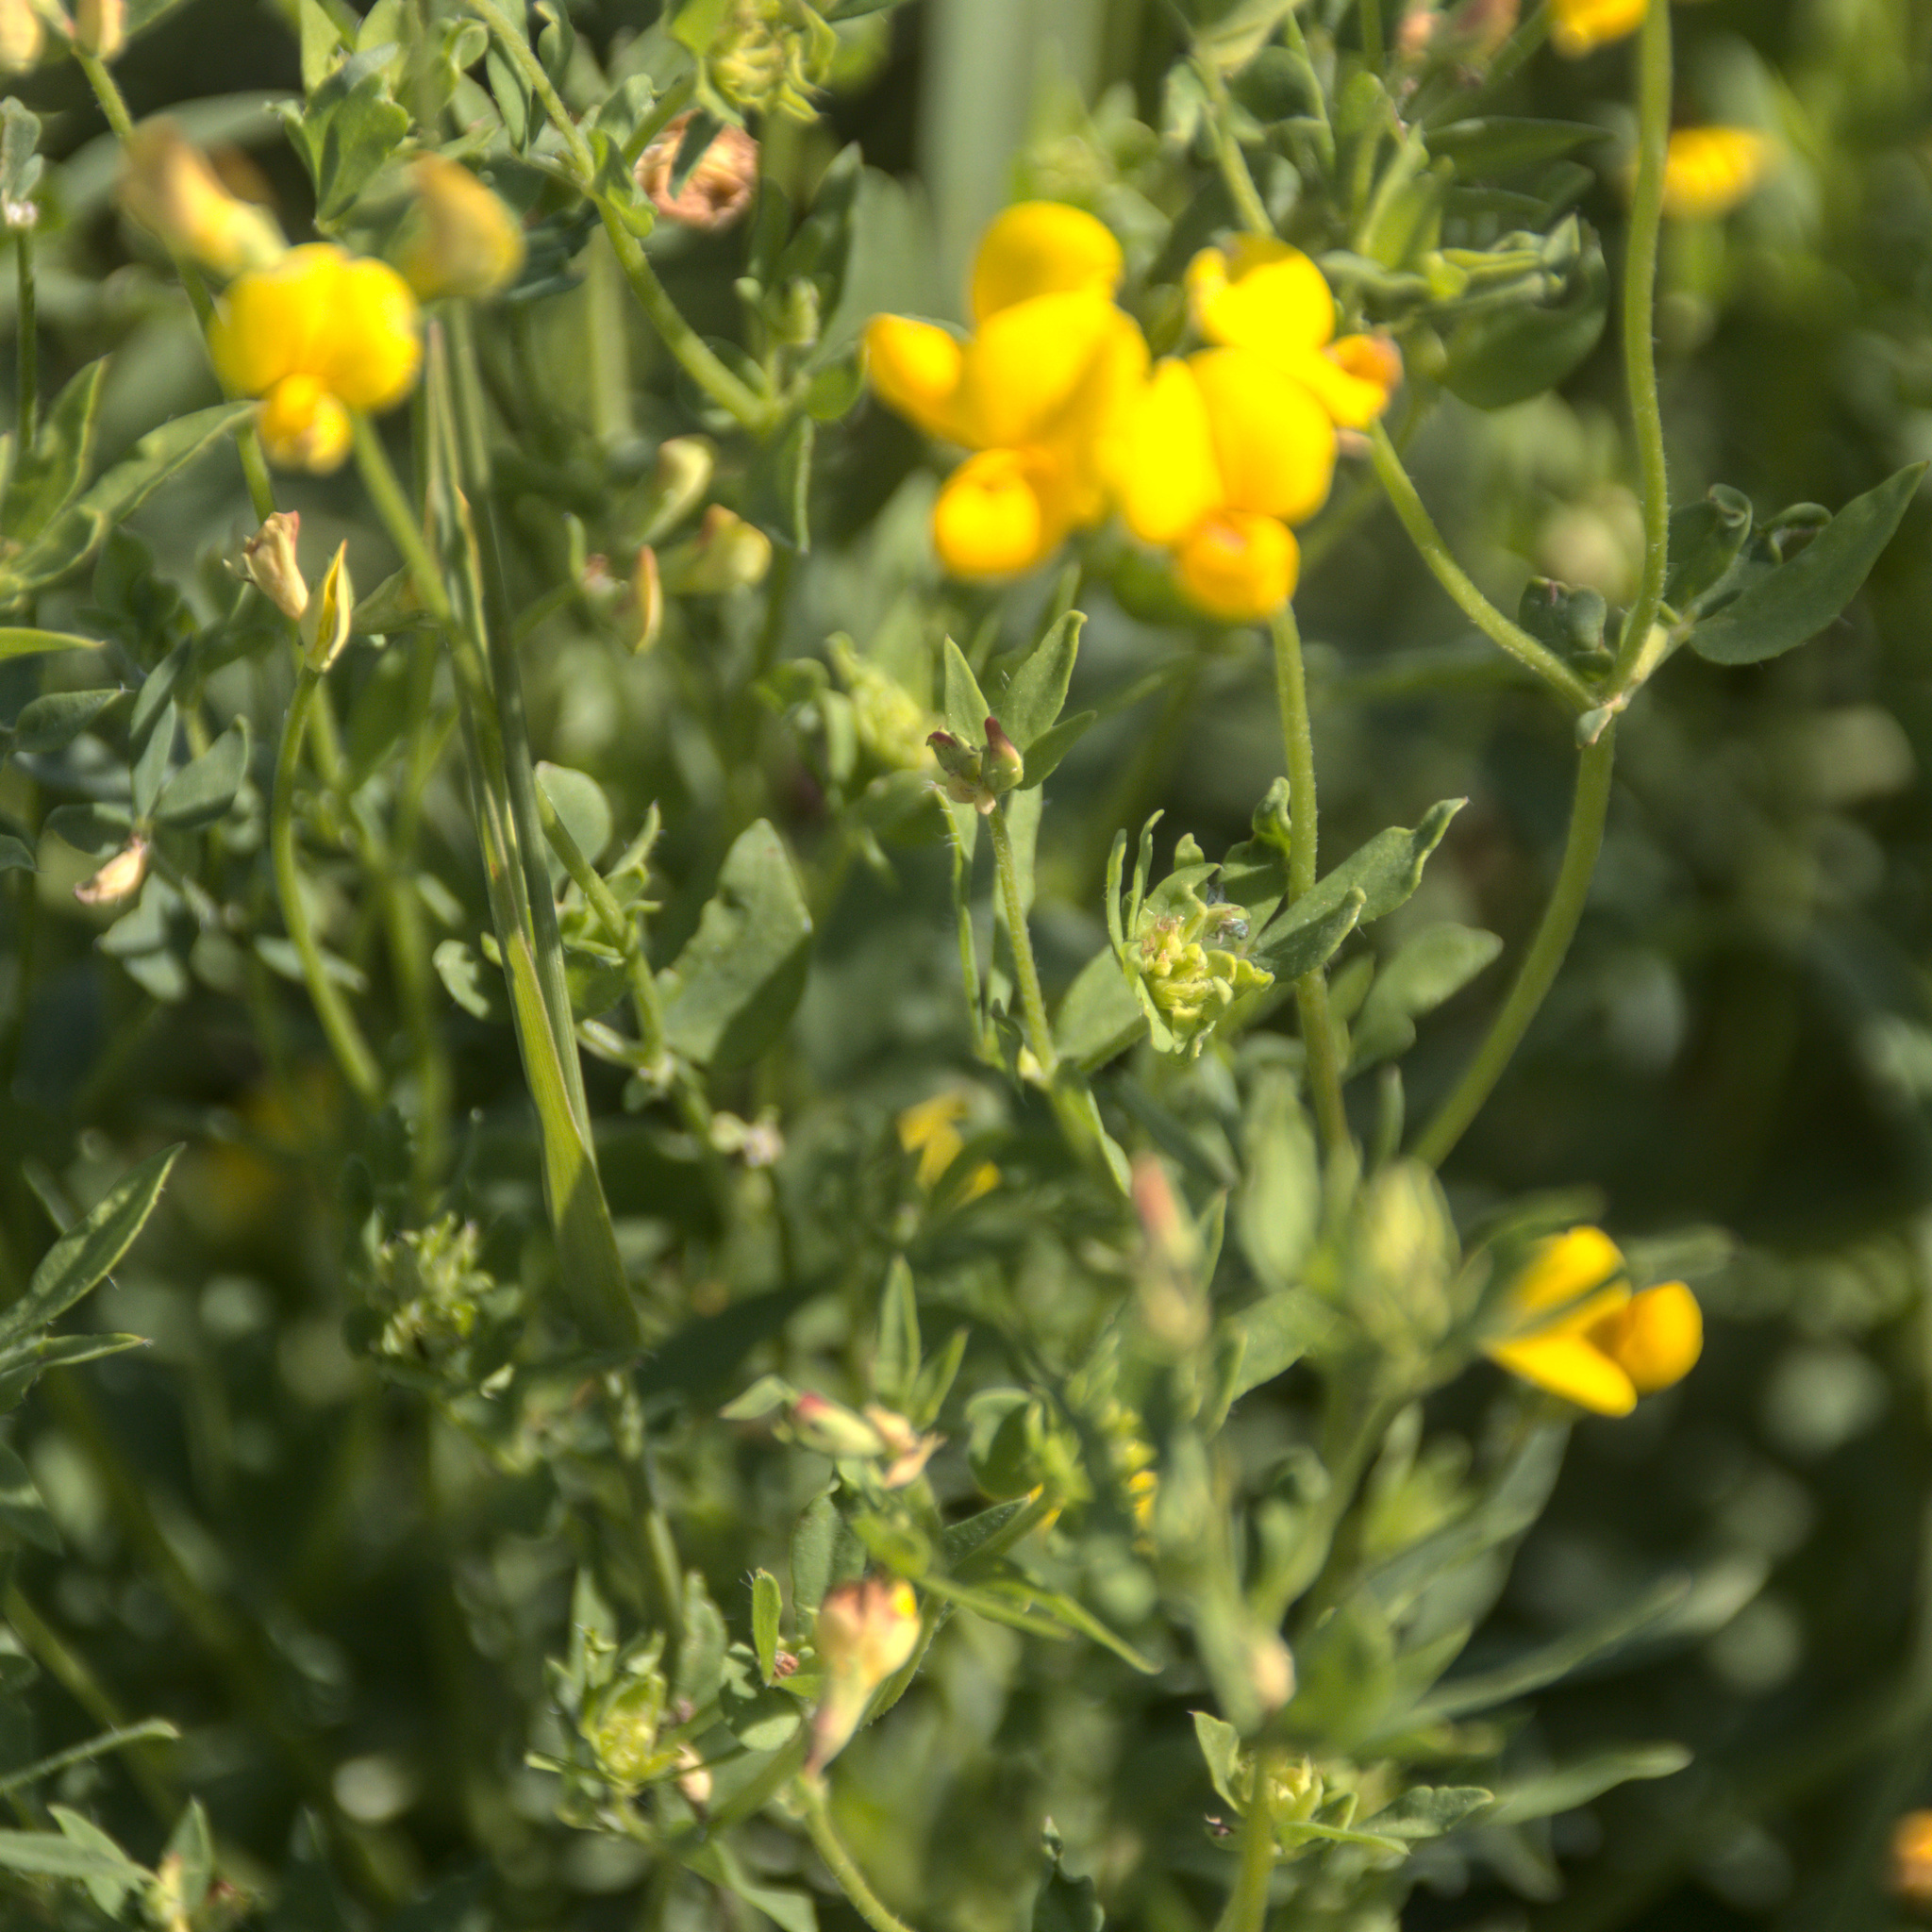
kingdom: Plantae
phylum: Tracheophyta
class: Magnoliopsida
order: Fabales
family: Fabaceae
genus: Lotus
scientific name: Lotus corniculatus
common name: Common bird's-foot-trefoil
